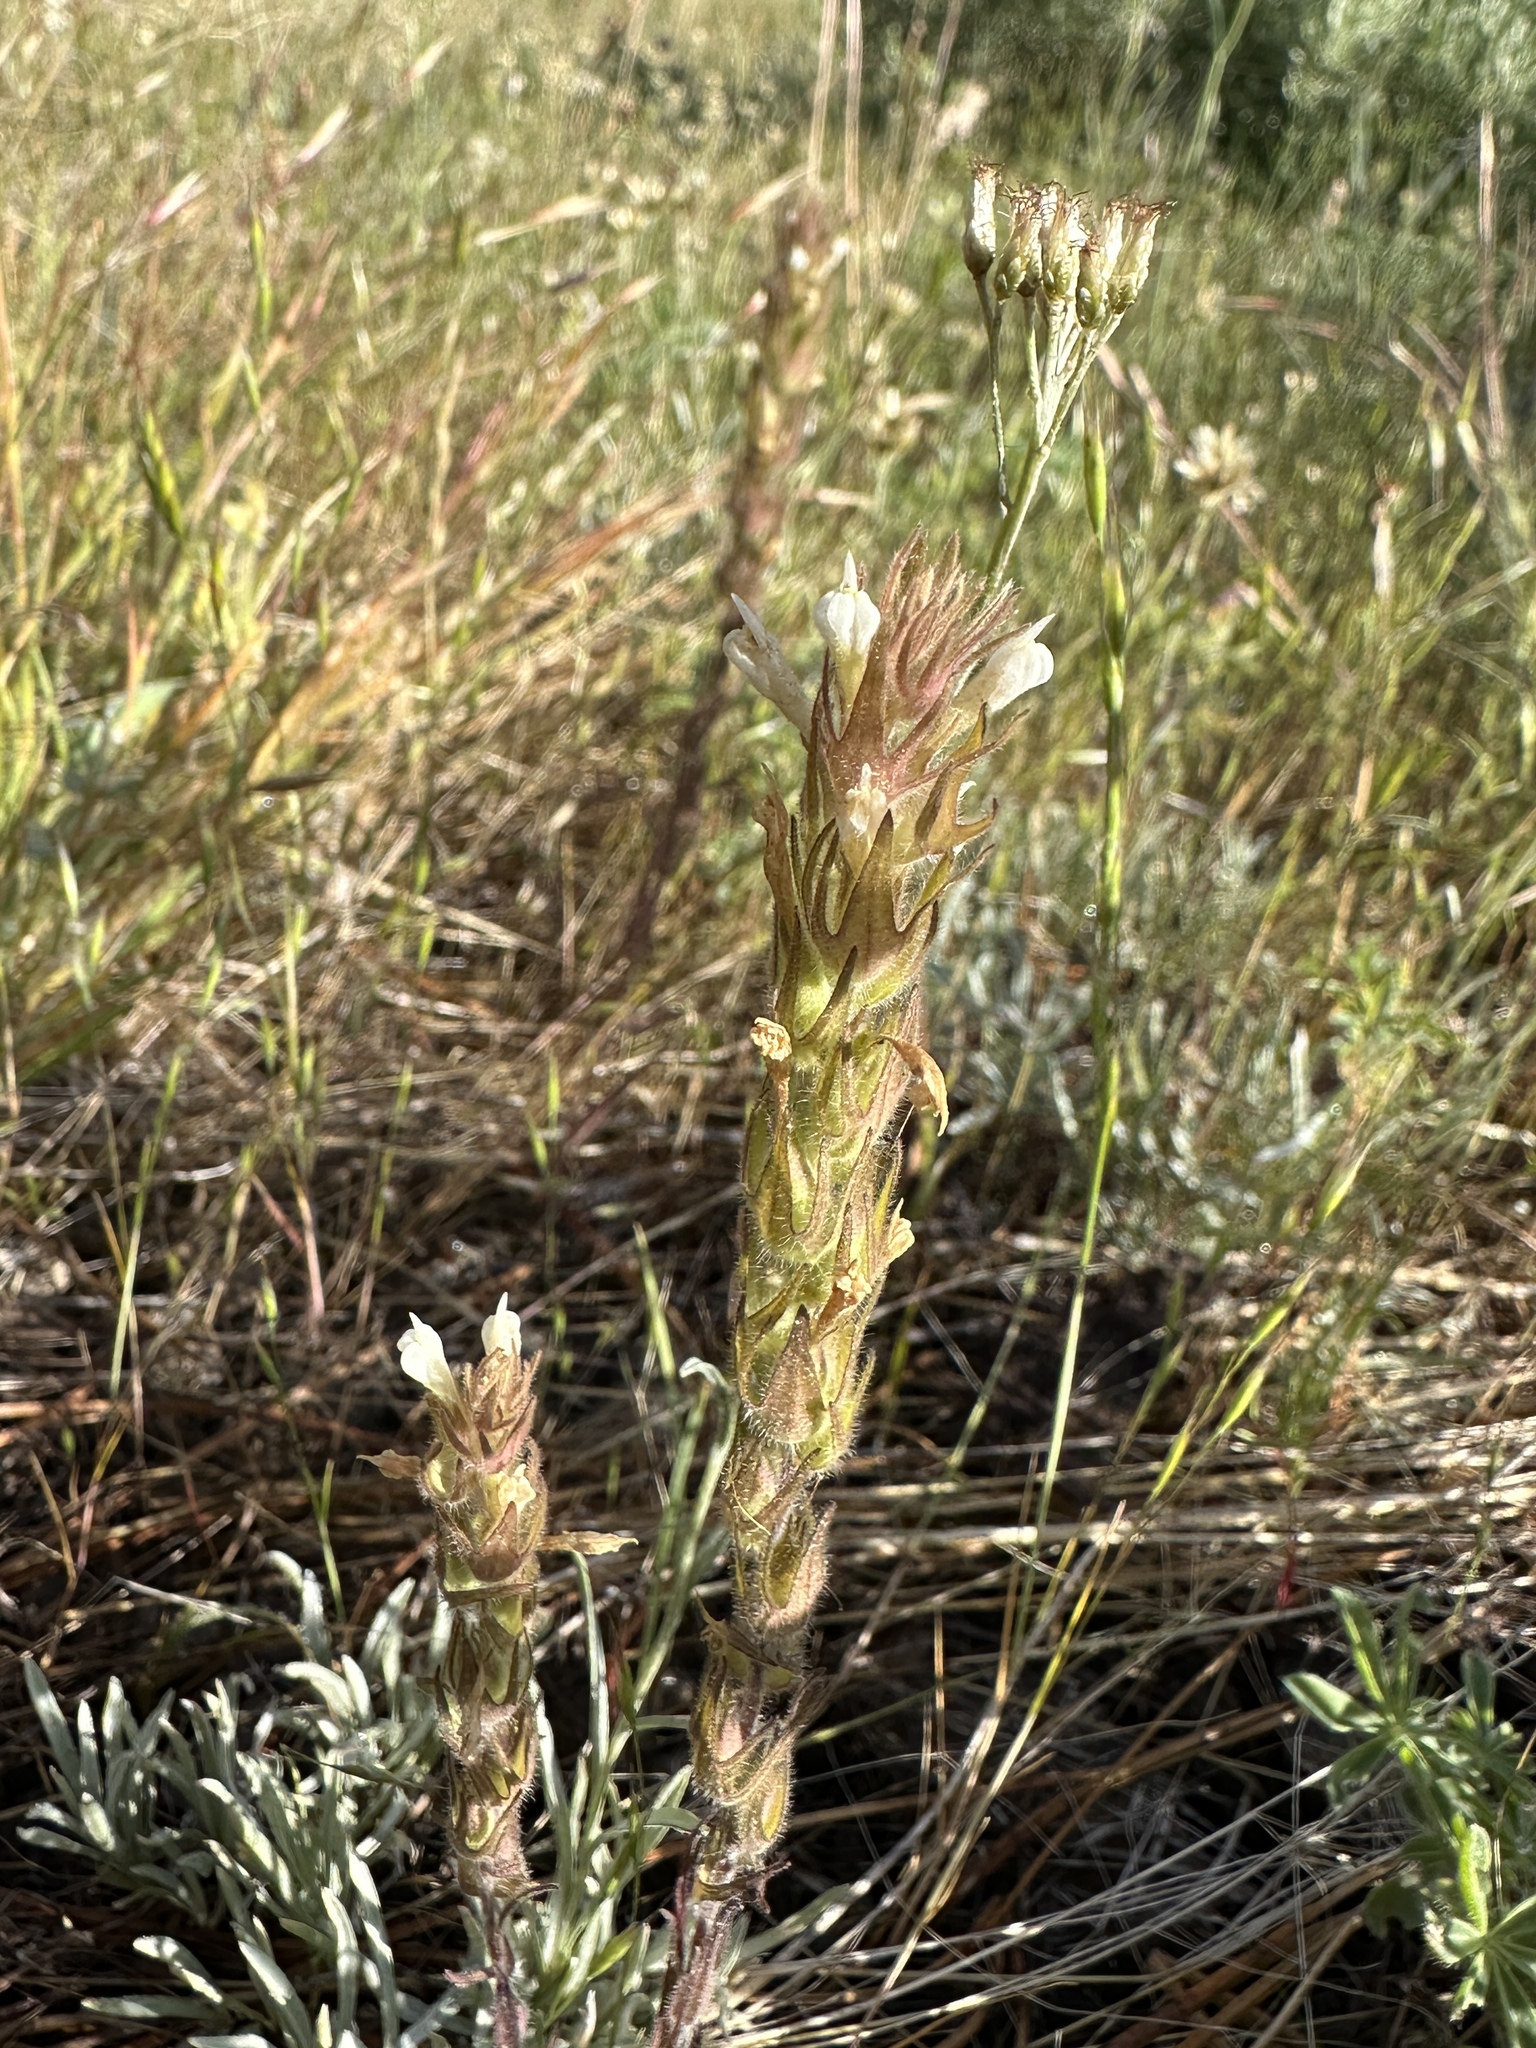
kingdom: Plantae
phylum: Tracheophyta
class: Magnoliopsida
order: Lamiales
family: Orobanchaceae
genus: Castilleja
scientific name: Castilleja tenuis
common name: Hairy indian paintbrush
